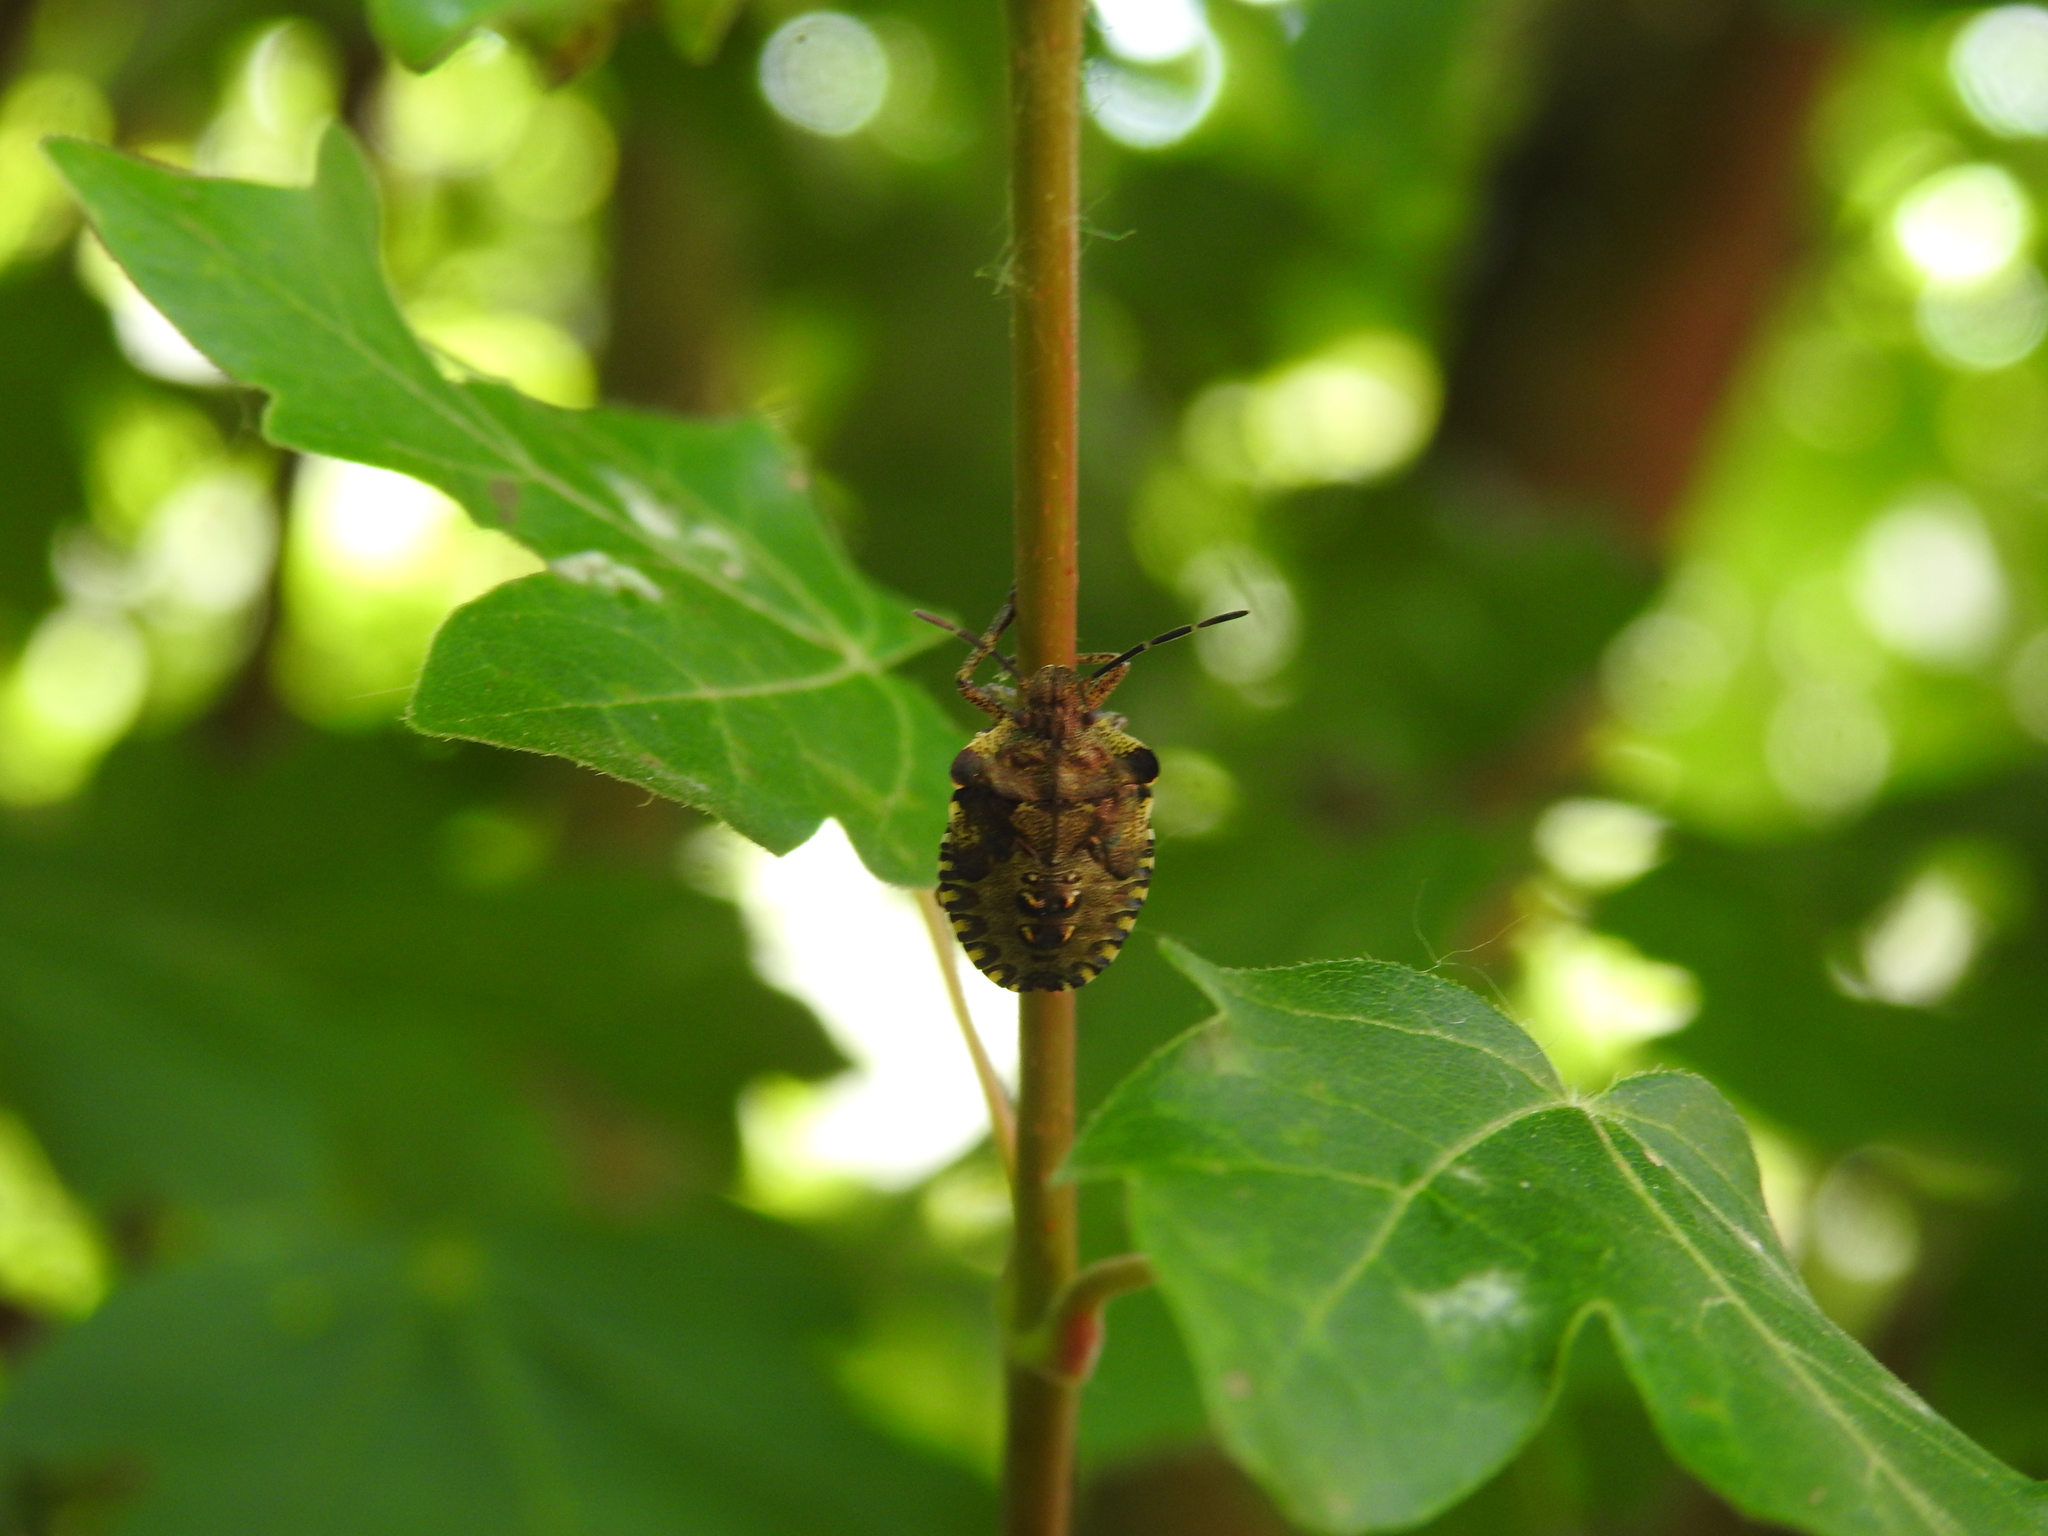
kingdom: Animalia
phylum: Arthropoda
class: Insecta
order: Hemiptera
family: Pentatomidae
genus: Pentatoma
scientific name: Pentatoma rufipes
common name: Forest bug
